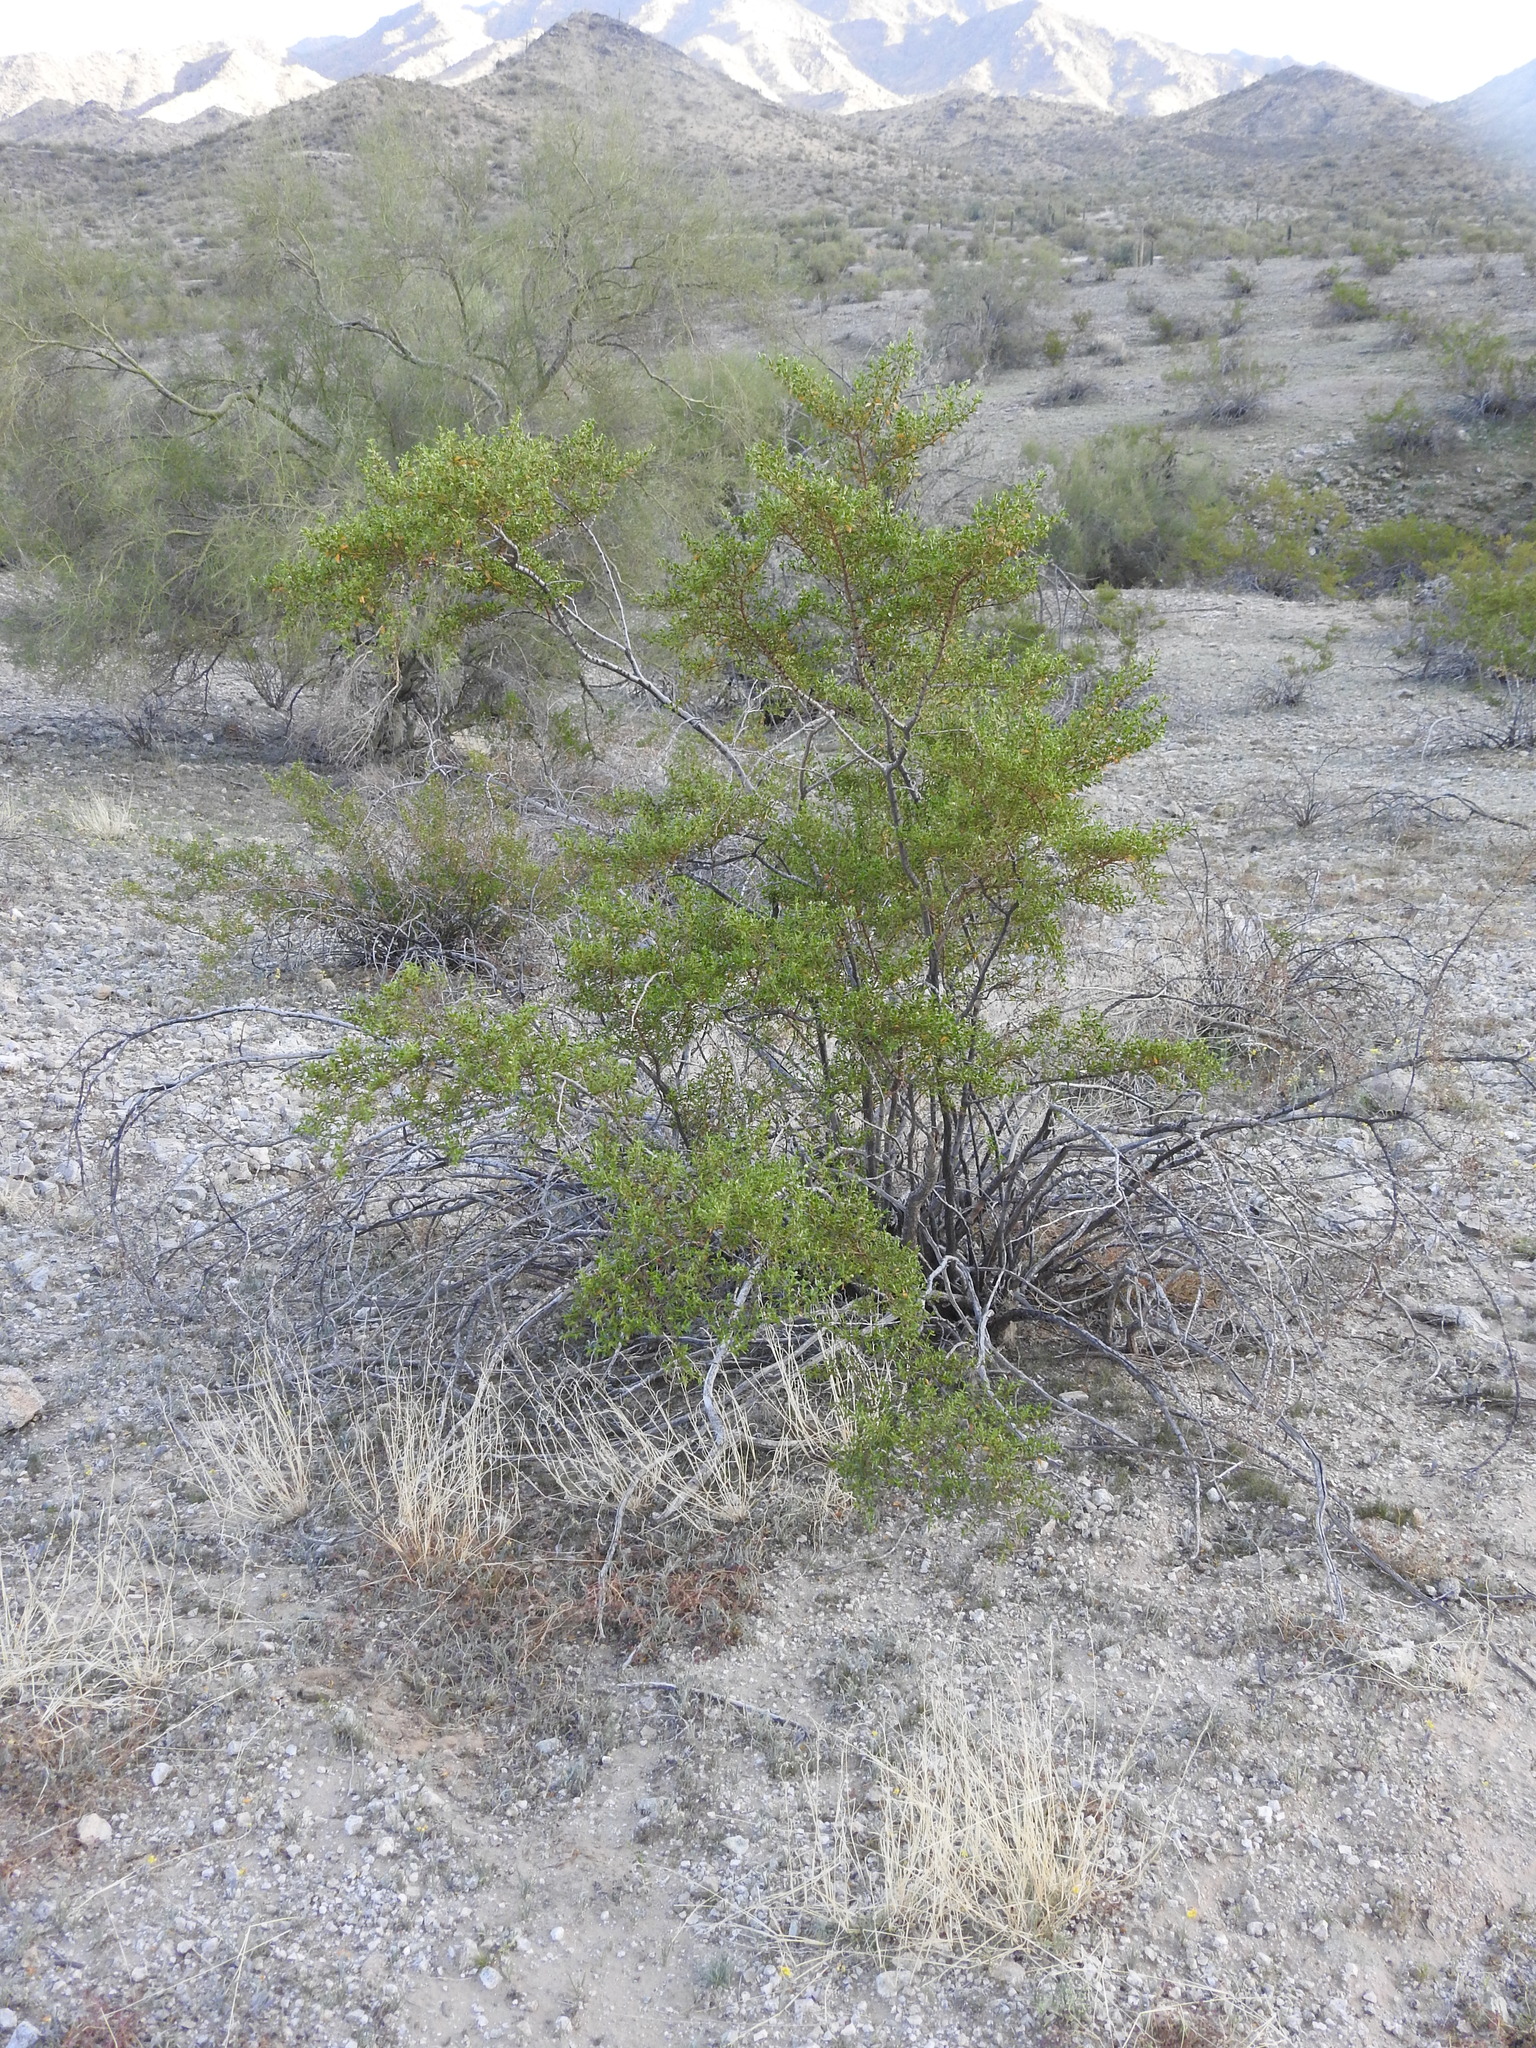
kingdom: Plantae
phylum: Tracheophyta
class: Magnoliopsida
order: Zygophyllales
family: Zygophyllaceae
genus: Larrea
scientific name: Larrea tridentata
